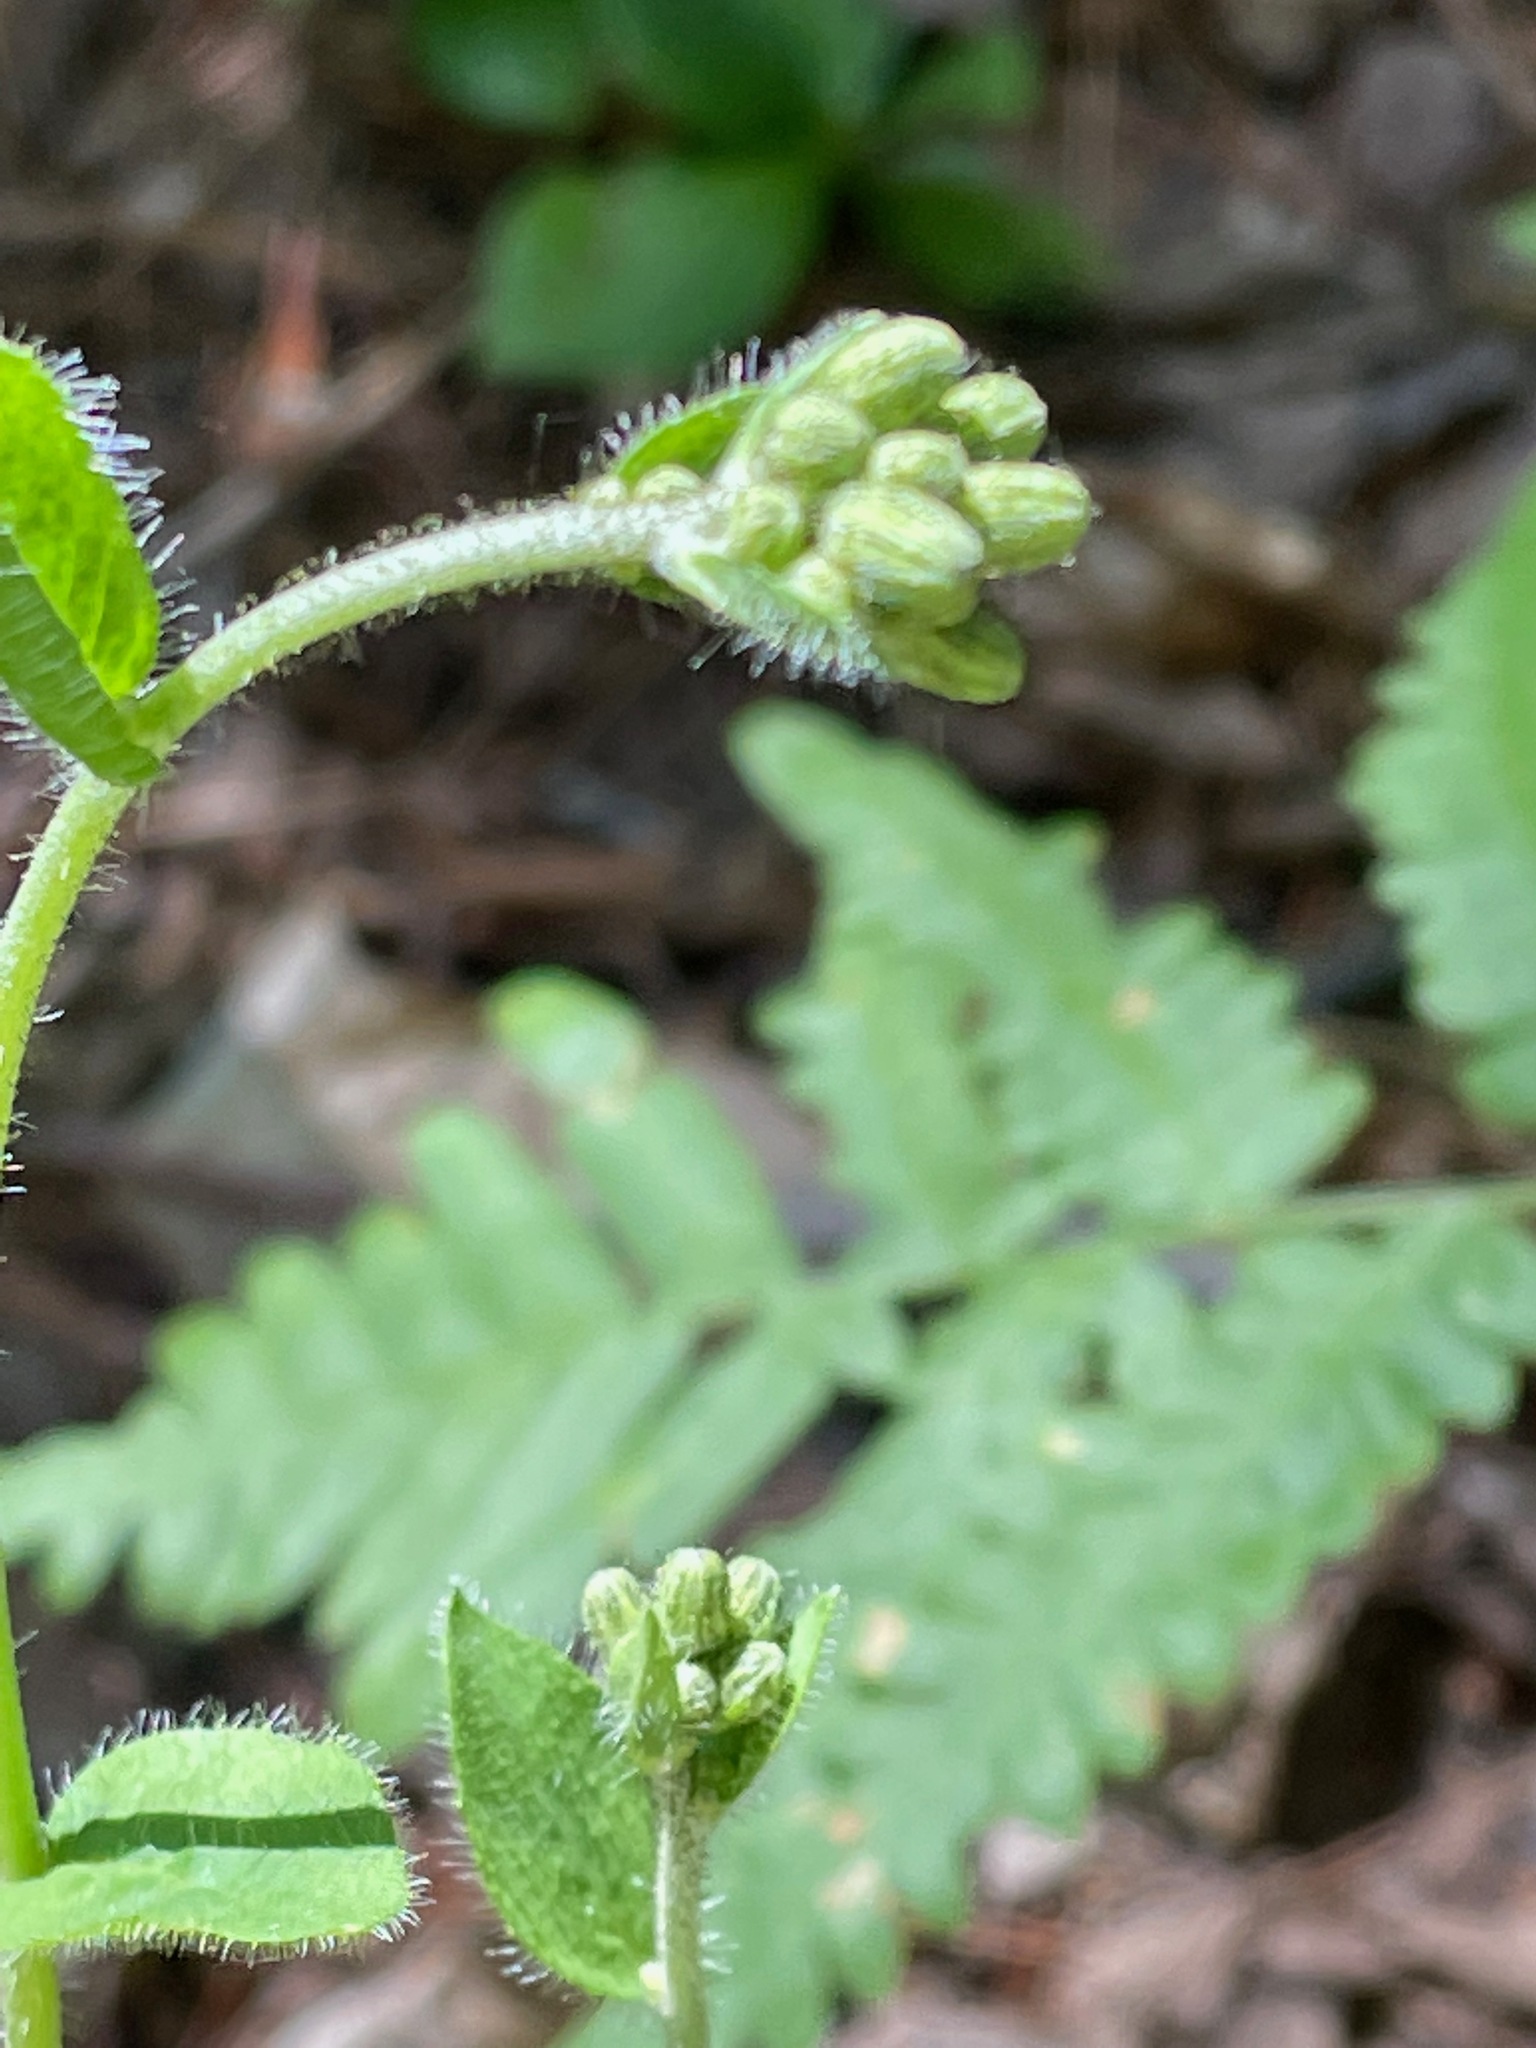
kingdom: Plantae
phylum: Tracheophyta
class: Magnoliopsida
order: Asterales
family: Asteraceae
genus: Hieracium
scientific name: Hieracium scabrum
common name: Rough hawkweed
